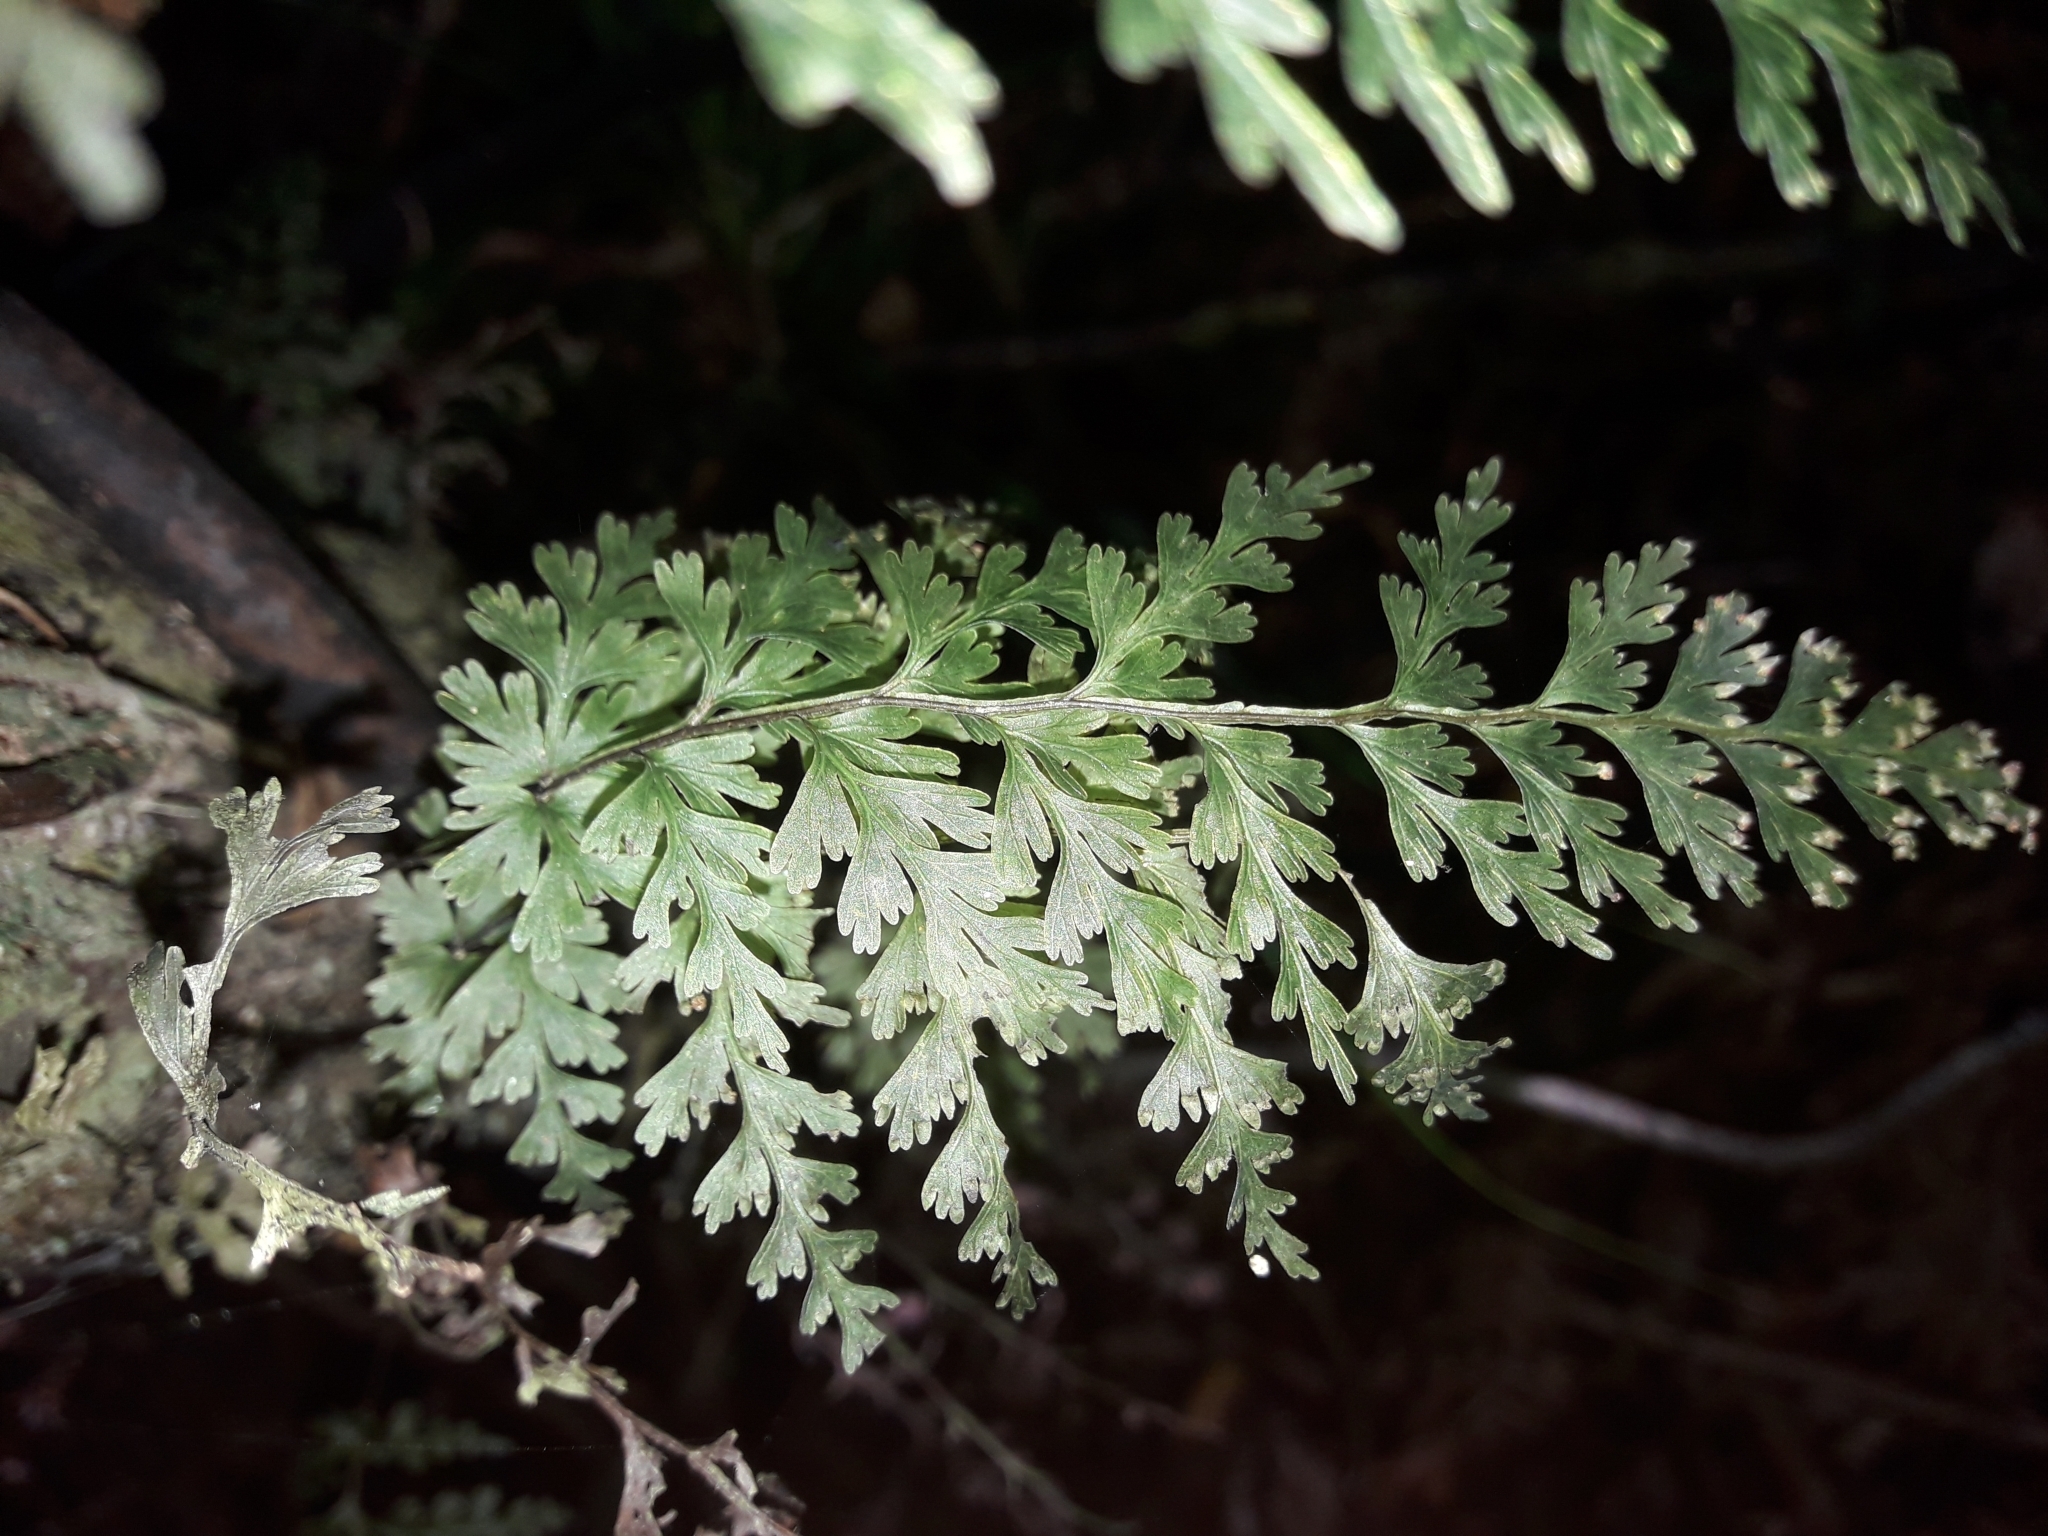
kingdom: Plantae
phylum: Tracheophyta
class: Polypodiopsida
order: Hymenophyllales
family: Hymenophyllaceae
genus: Hymenophyllum
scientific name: Hymenophyllum demissum
